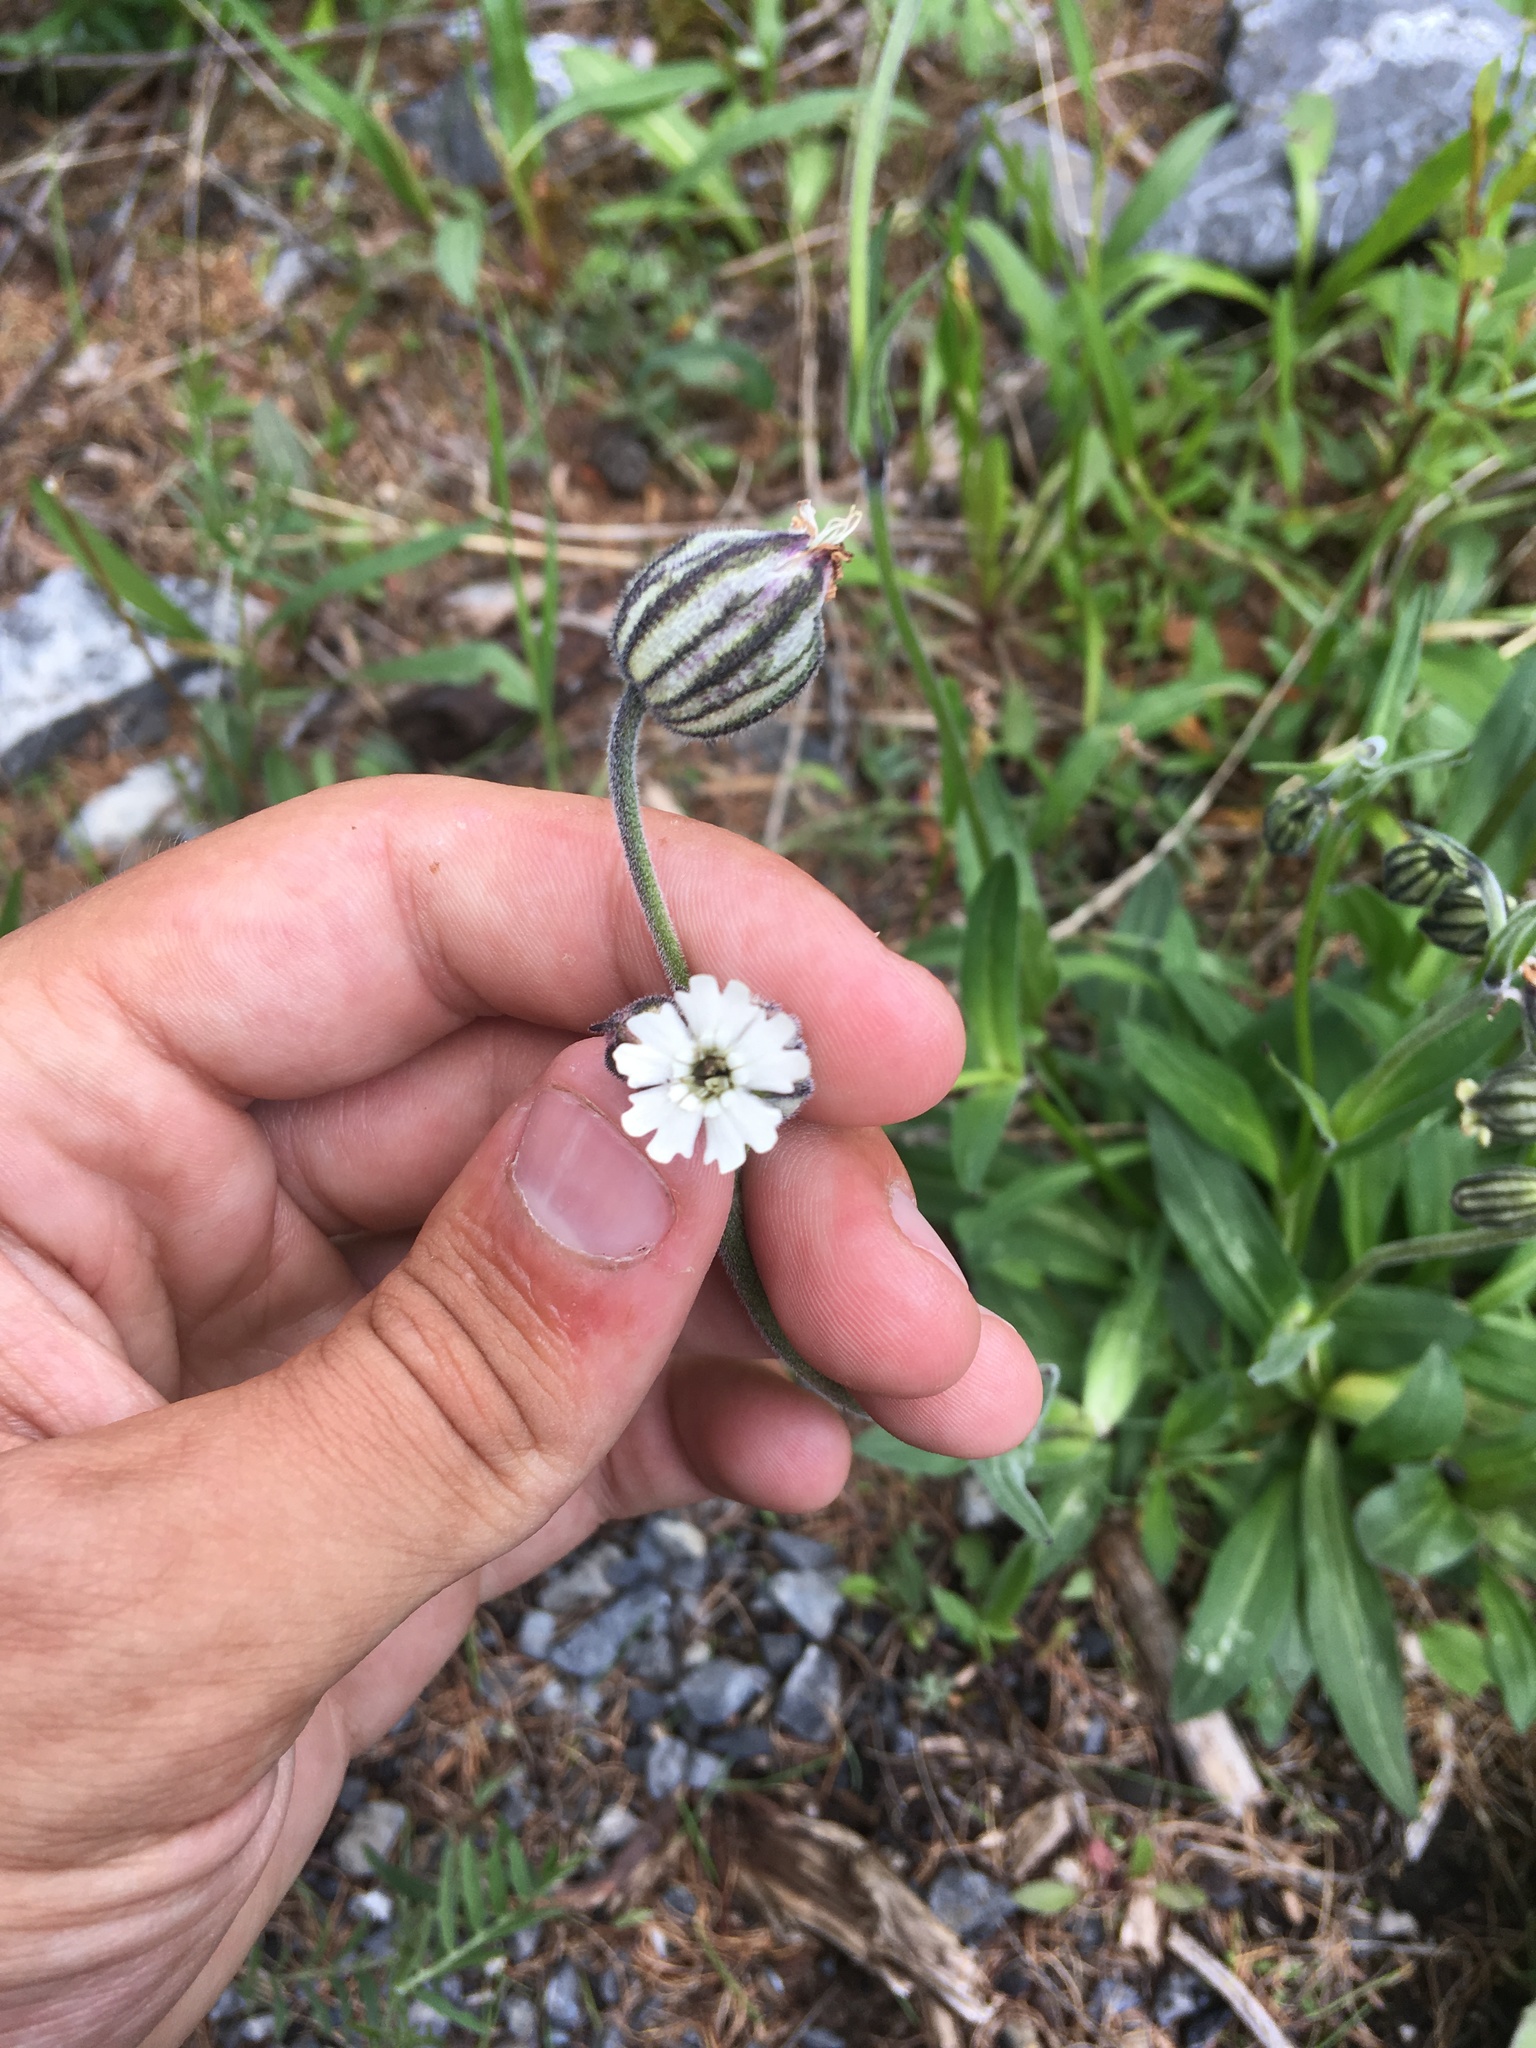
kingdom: Plantae
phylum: Tracheophyta
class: Magnoliopsida
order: Caryophyllales
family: Caryophyllaceae
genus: Silene
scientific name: Silene songarica
